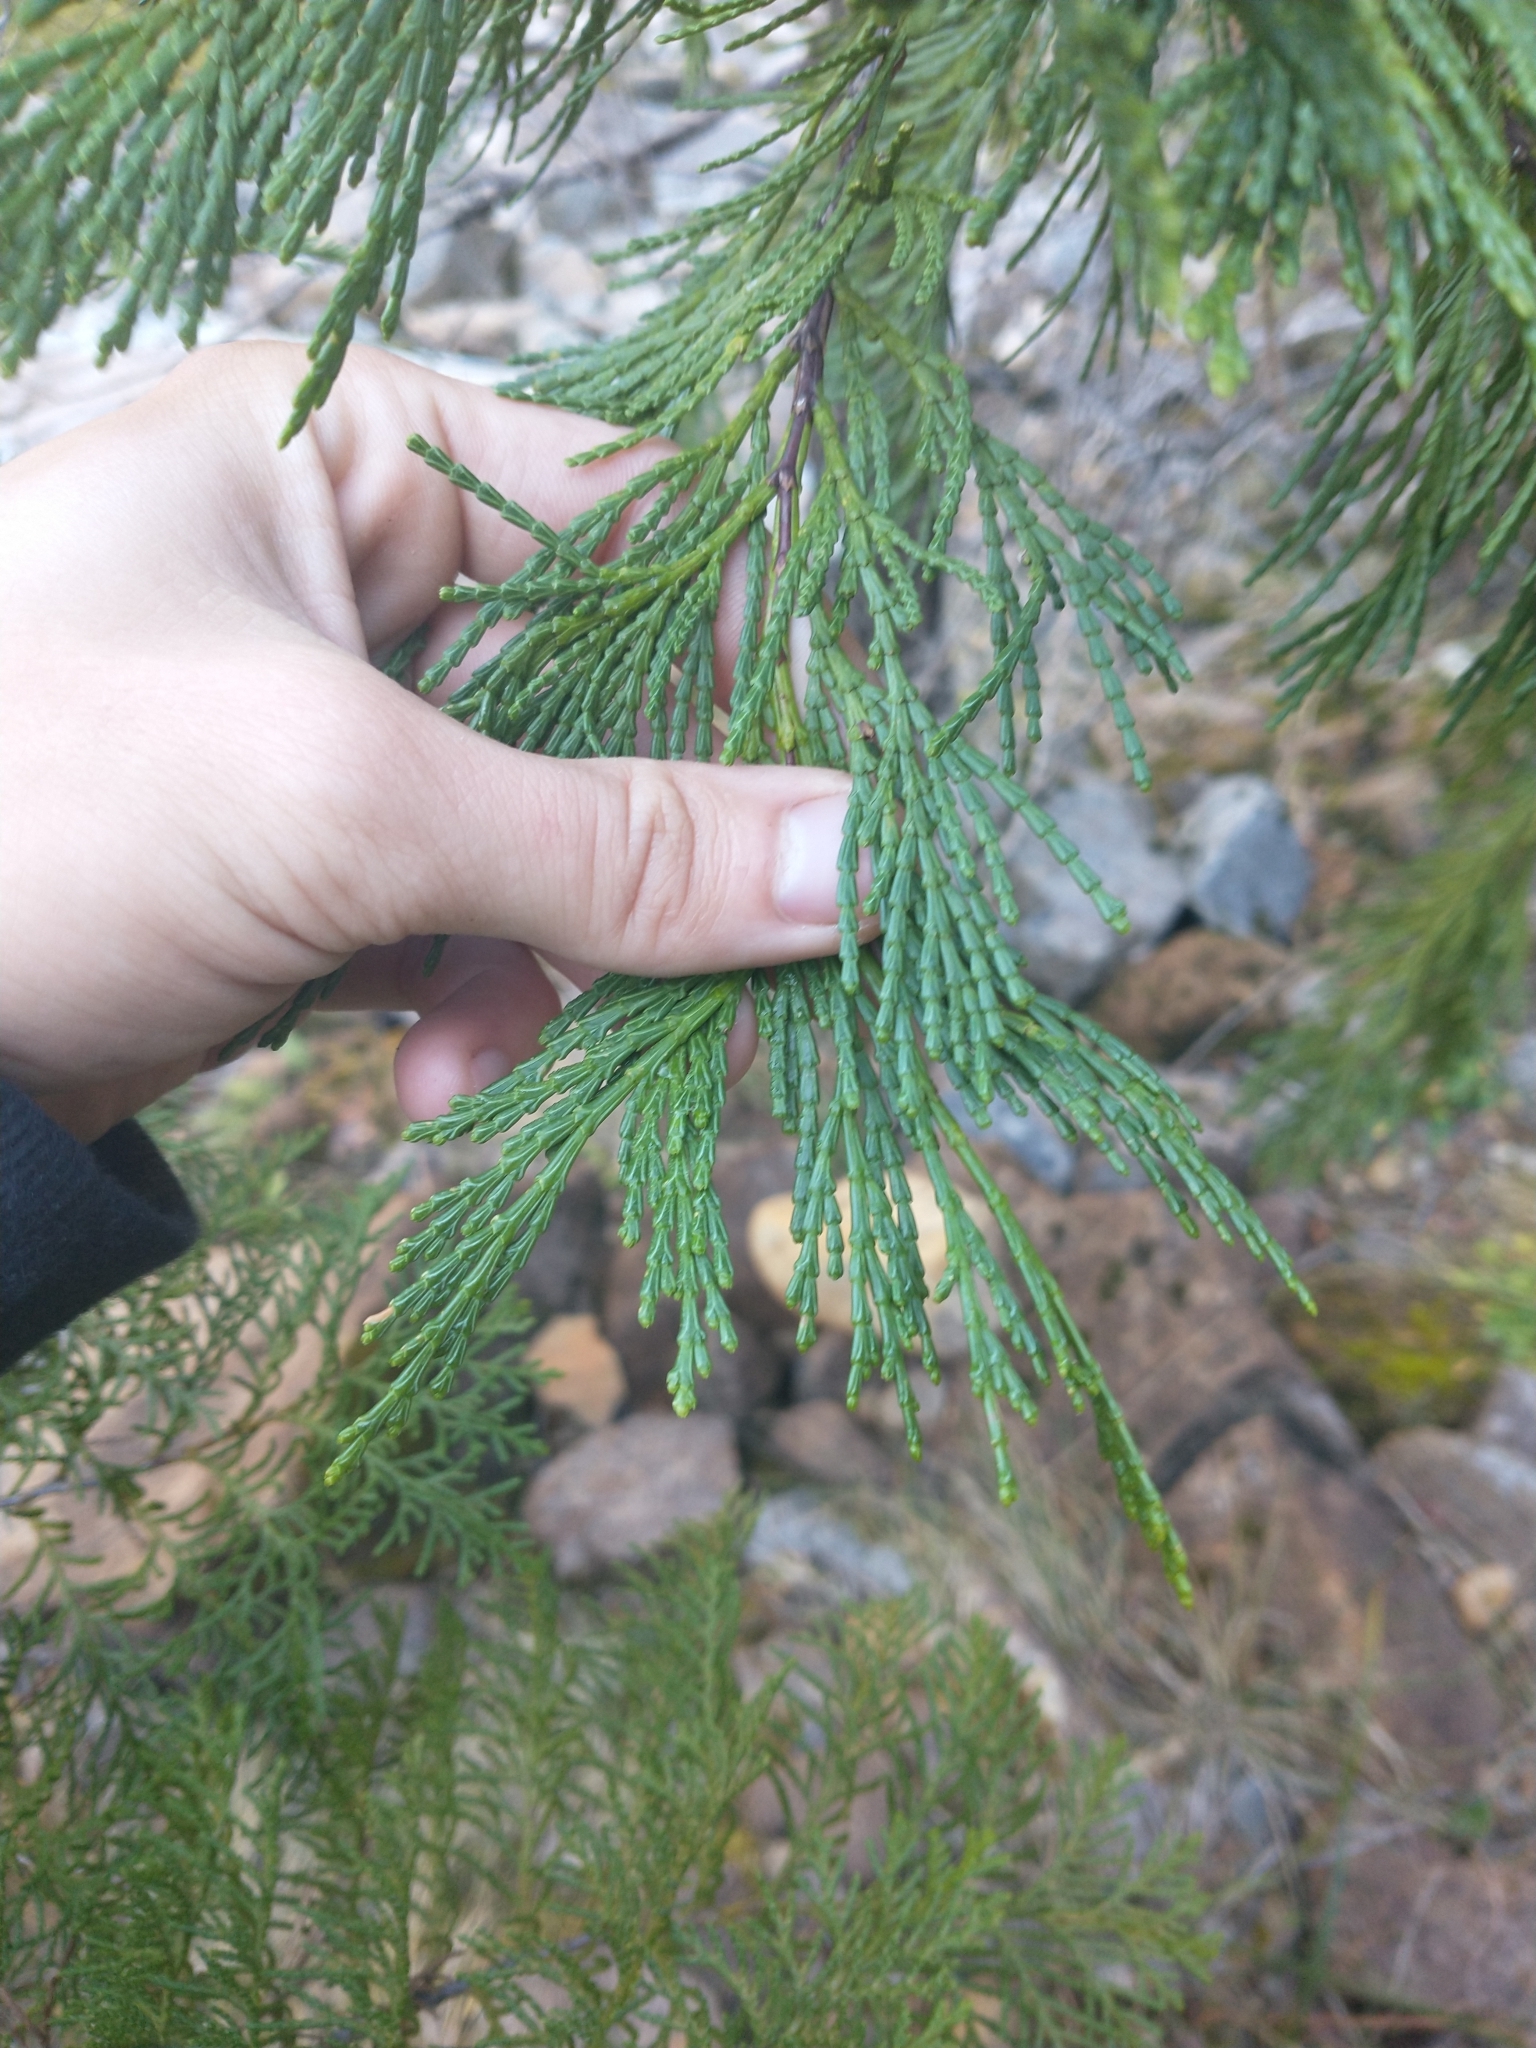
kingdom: Plantae
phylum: Tracheophyta
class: Pinopsida
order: Pinales
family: Cupressaceae
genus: Calocedrus
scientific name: Calocedrus decurrens
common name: Californian incense-cedar
